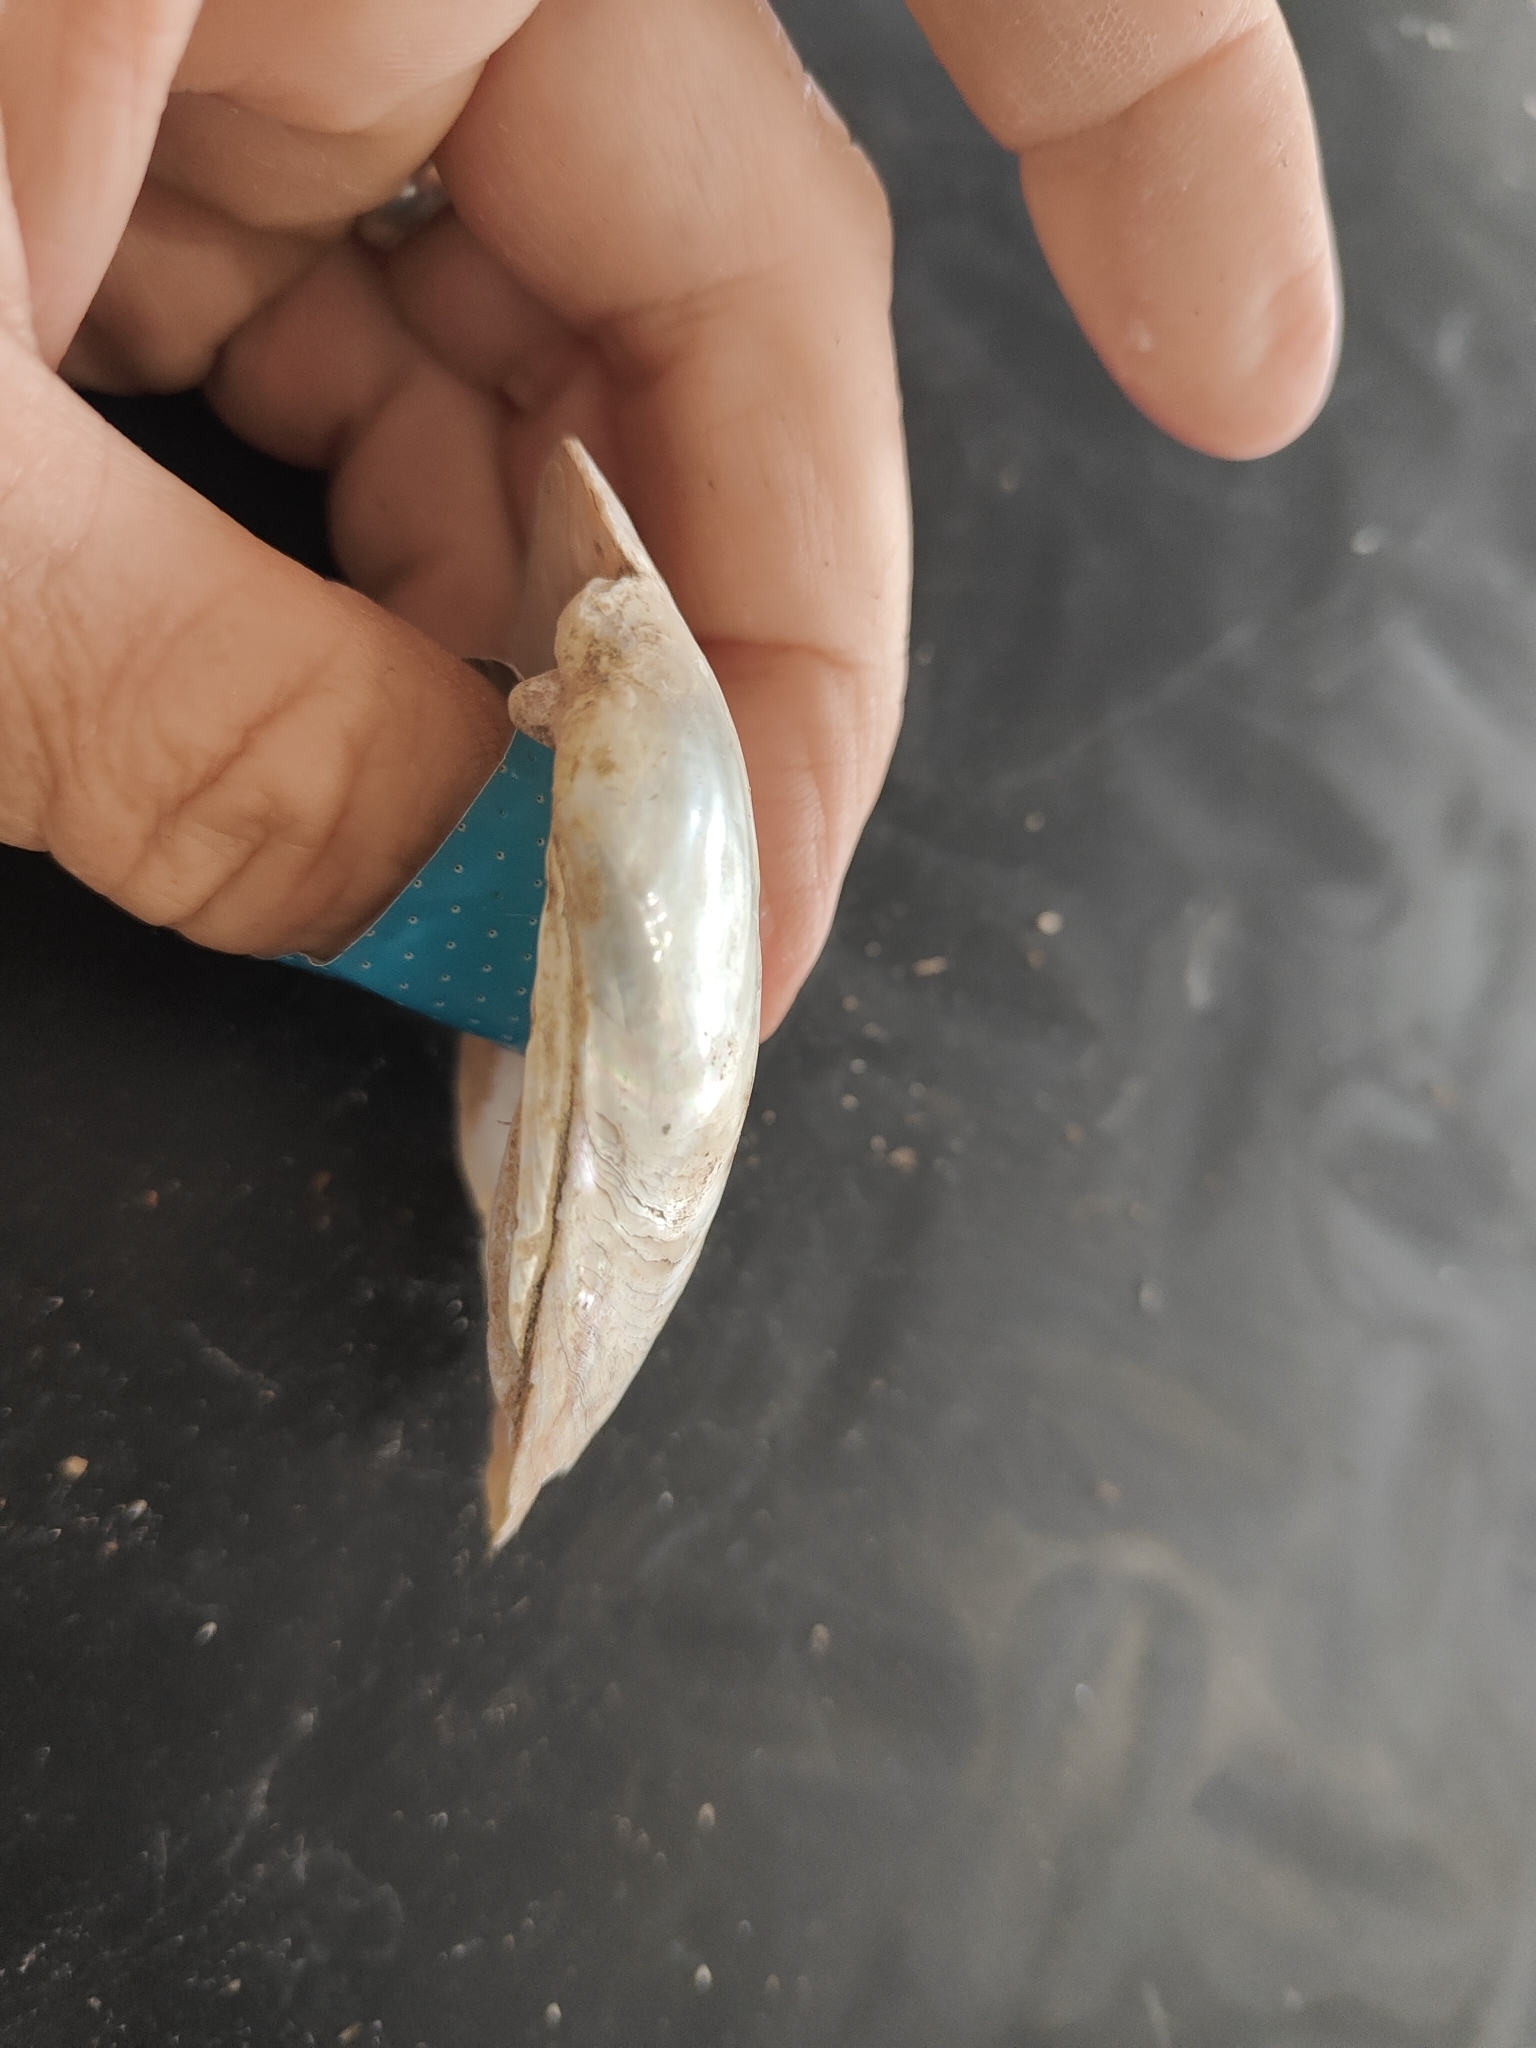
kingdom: Animalia
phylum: Mollusca
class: Bivalvia
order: Unionida
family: Unionidae
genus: Lampsilis
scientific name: Lampsilis siliquoidea
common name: Fatmucket
